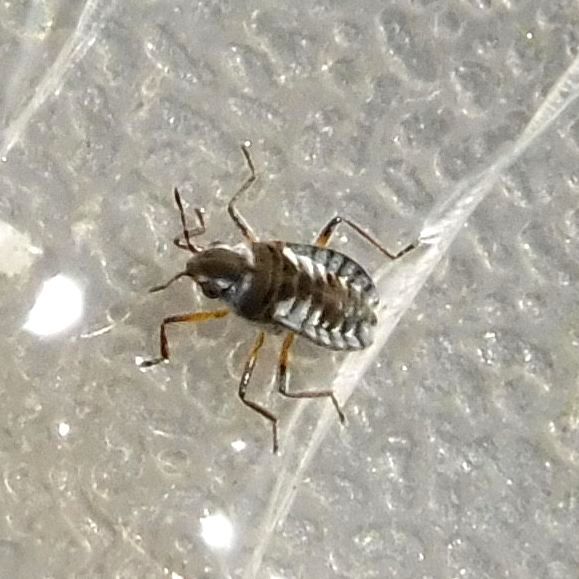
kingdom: Animalia
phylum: Arthropoda
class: Insecta
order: Hemiptera
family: Veliidae
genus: Microvelia
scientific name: Microvelia reticulata
